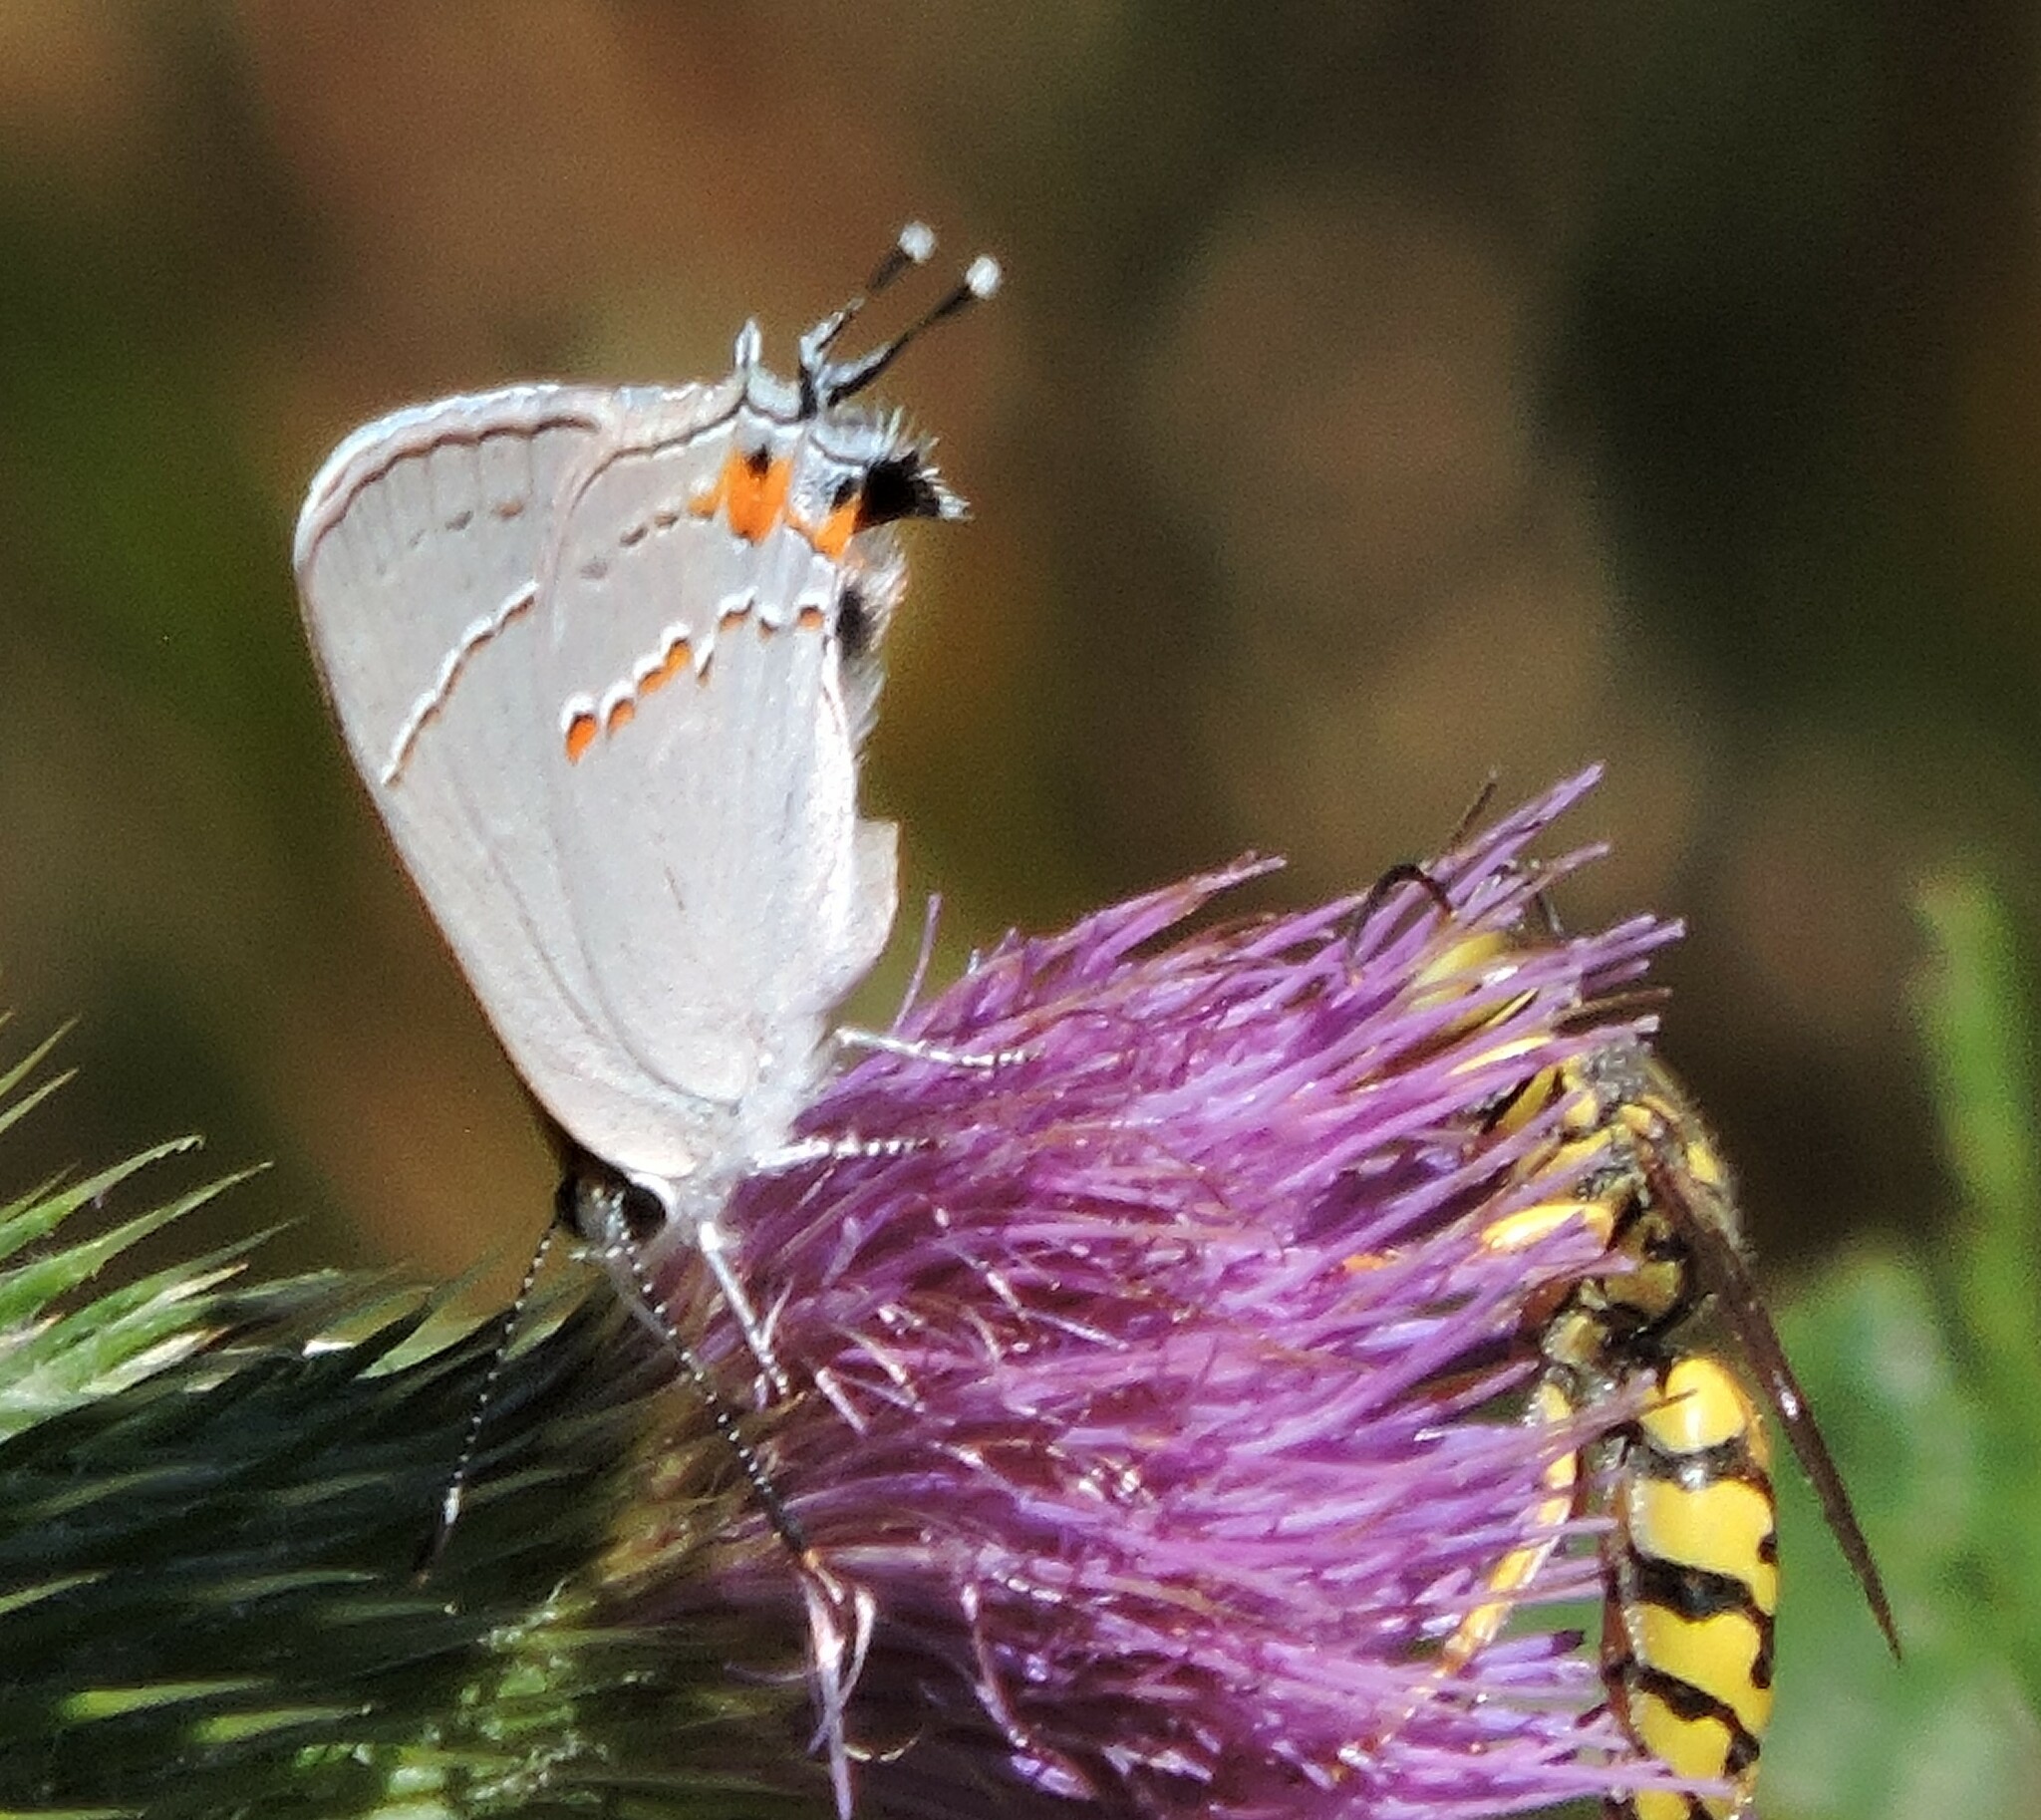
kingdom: Animalia
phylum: Arthropoda
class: Insecta
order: Lepidoptera
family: Lycaenidae
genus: Strymon
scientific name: Strymon melinus
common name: Gray hairstreak
